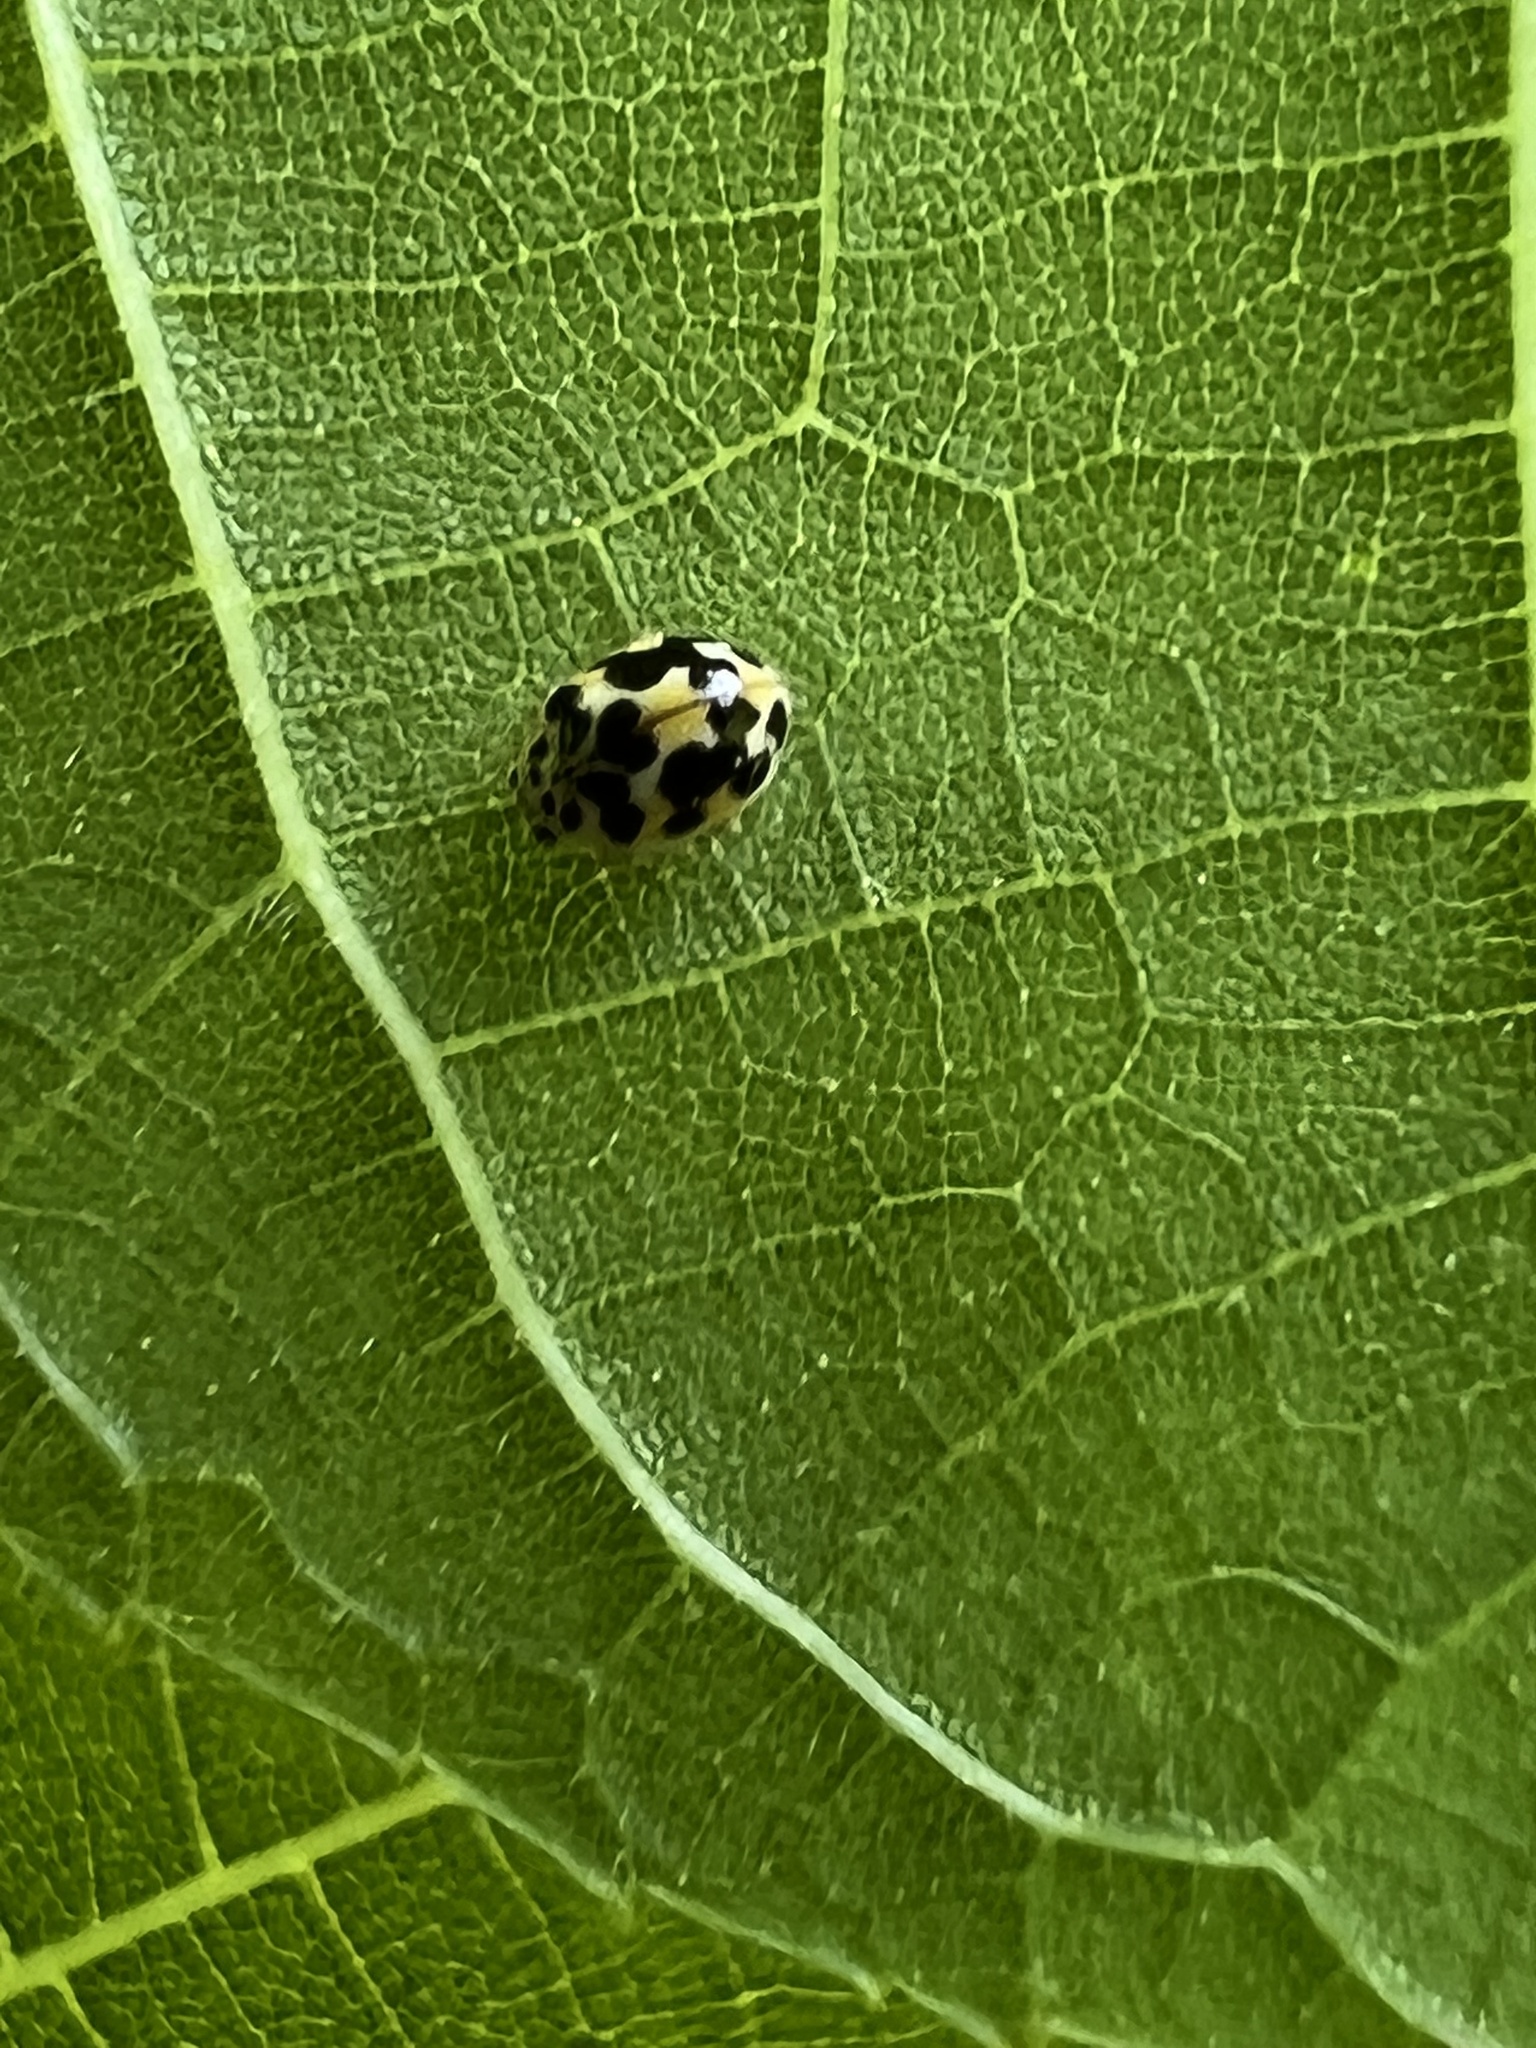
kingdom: Animalia
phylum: Arthropoda
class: Insecta
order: Coleoptera
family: Coccinellidae
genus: Psyllobora
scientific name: Psyllobora vigintimaculata
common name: Ladybird beetle
